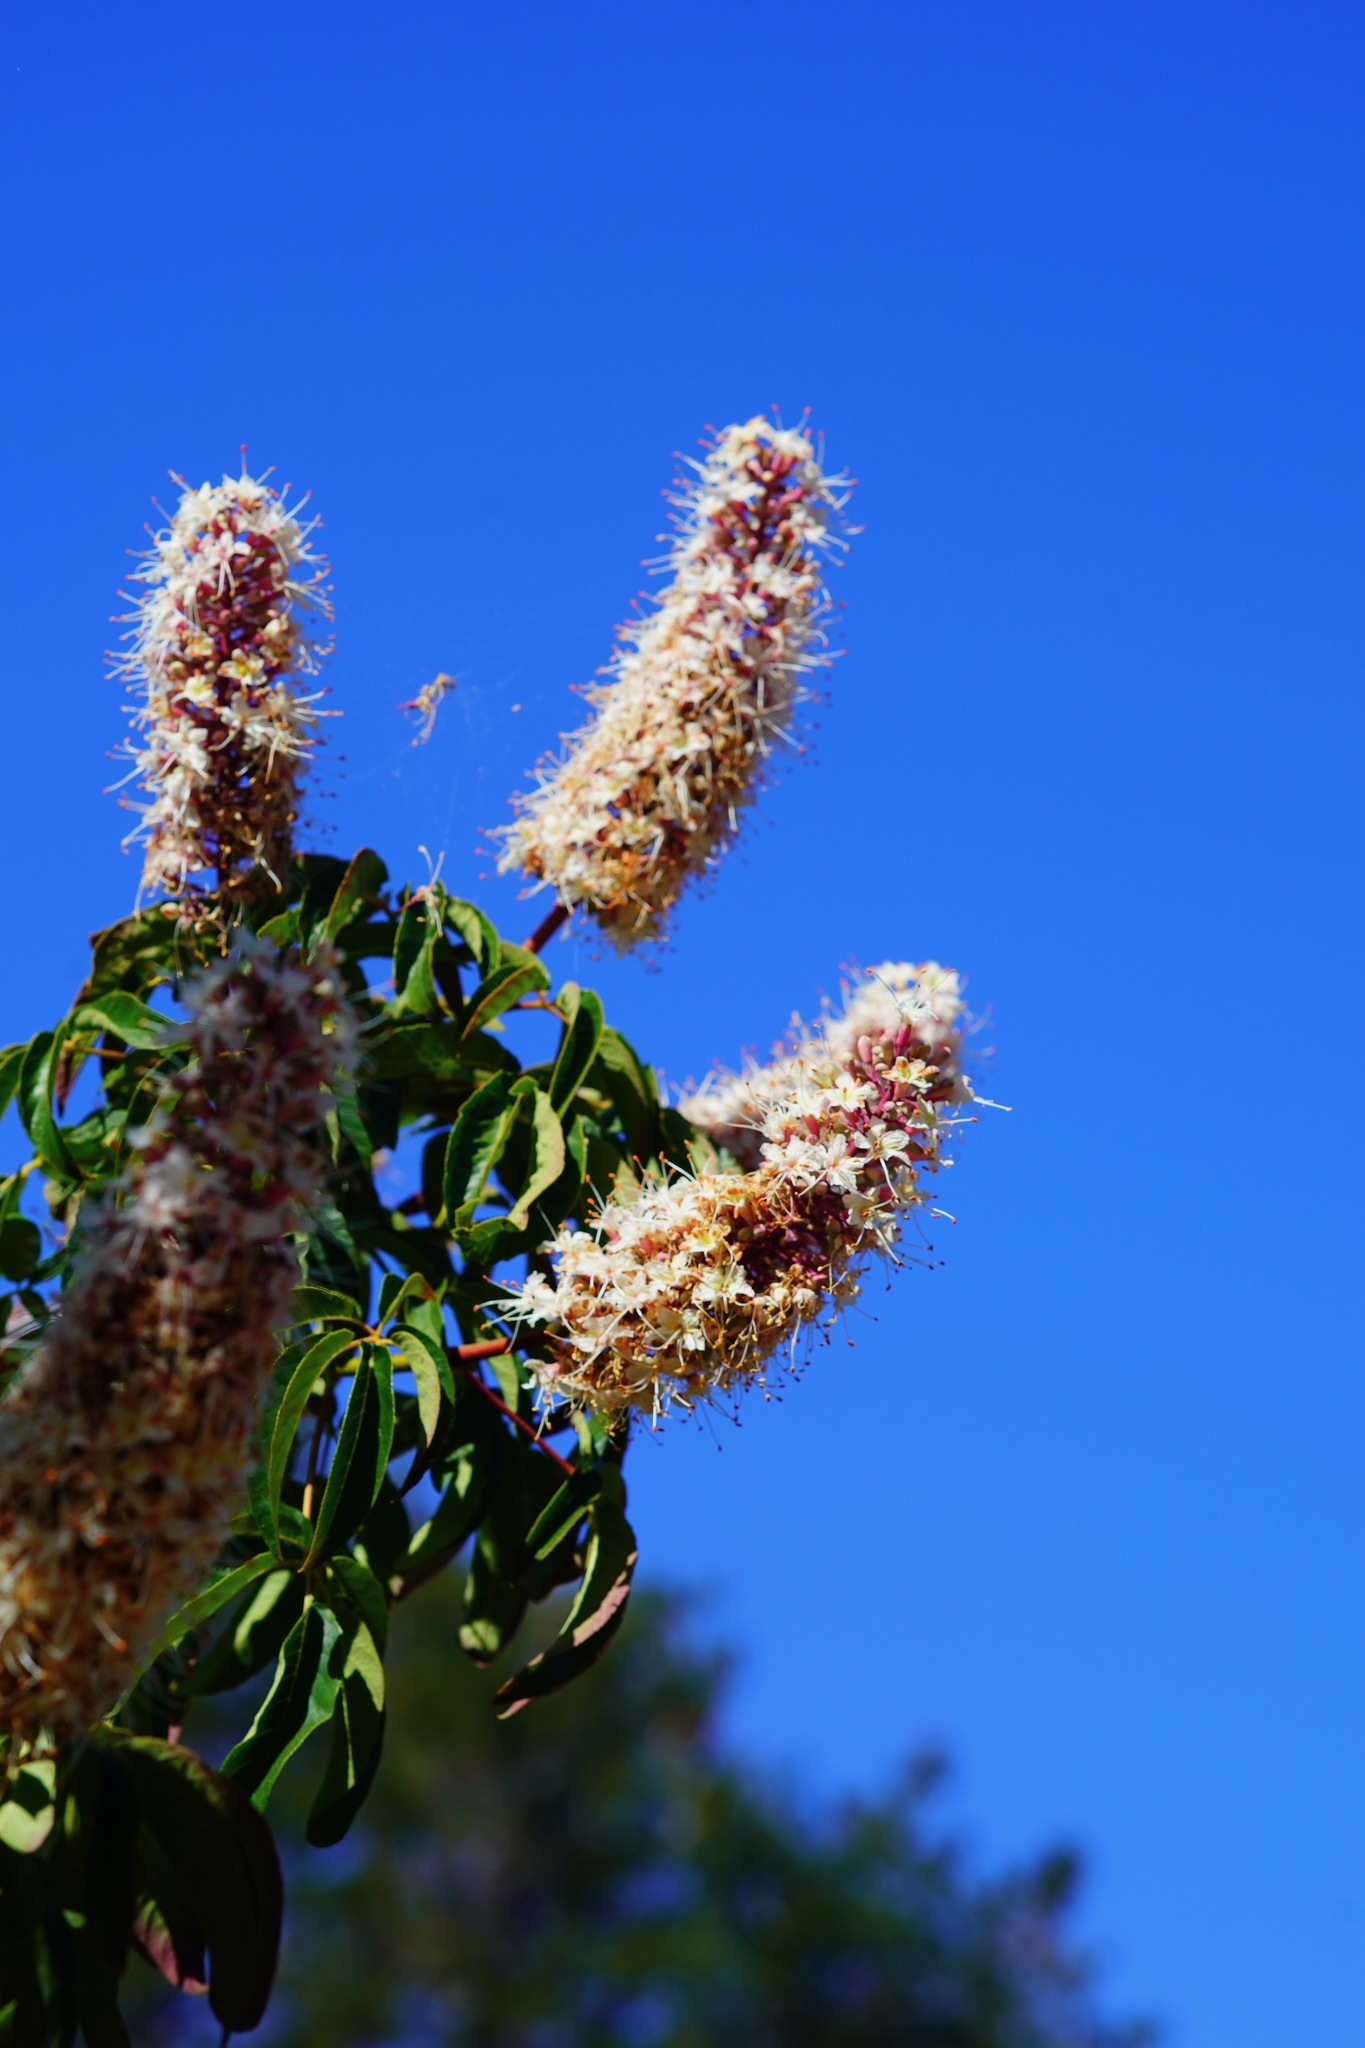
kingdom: Plantae
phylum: Tracheophyta
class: Magnoliopsida
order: Sapindales
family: Sapindaceae
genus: Aesculus
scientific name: Aesculus californica
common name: California buckeye
